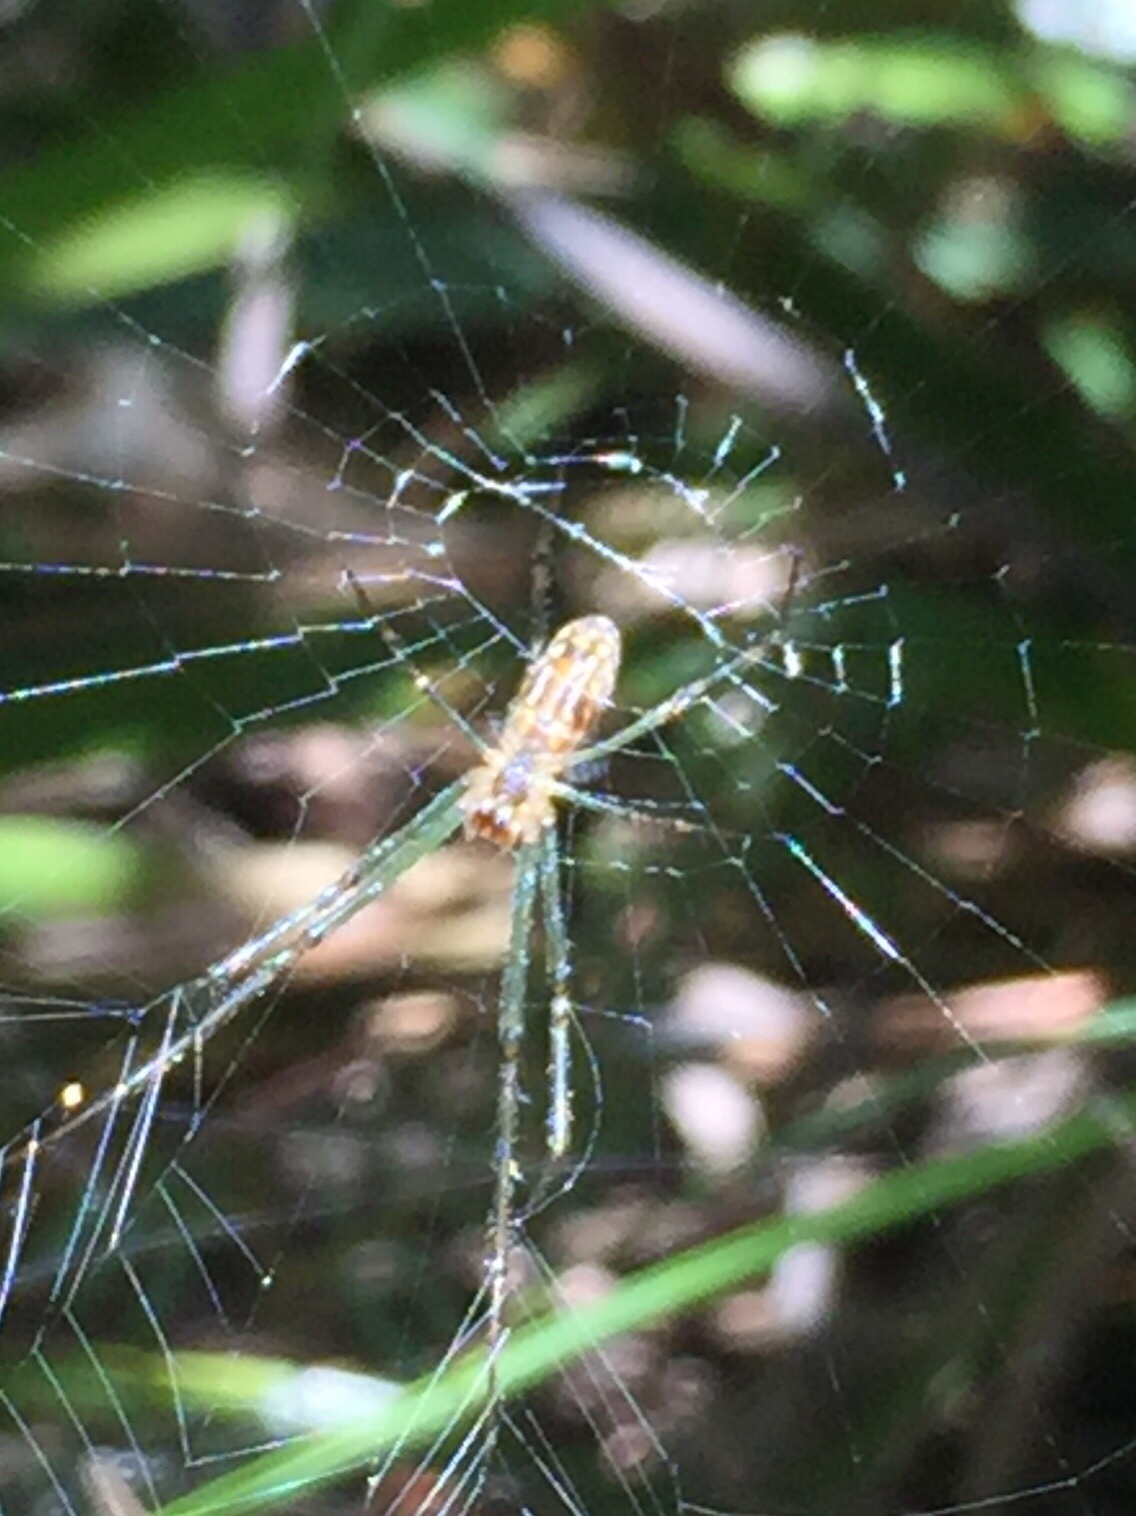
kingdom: Animalia
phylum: Arthropoda
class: Arachnida
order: Araneae
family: Tetragnathidae
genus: Leucauge
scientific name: Leucauge dromedaria
